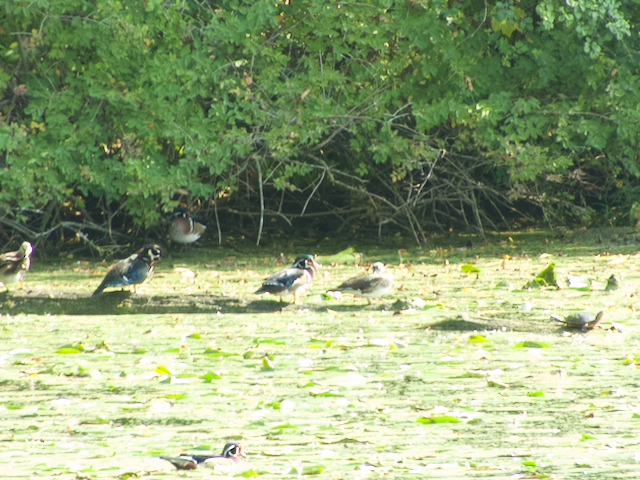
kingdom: Animalia
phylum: Chordata
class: Aves
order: Anseriformes
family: Anatidae
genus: Aix
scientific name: Aix sponsa
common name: Wood duck
